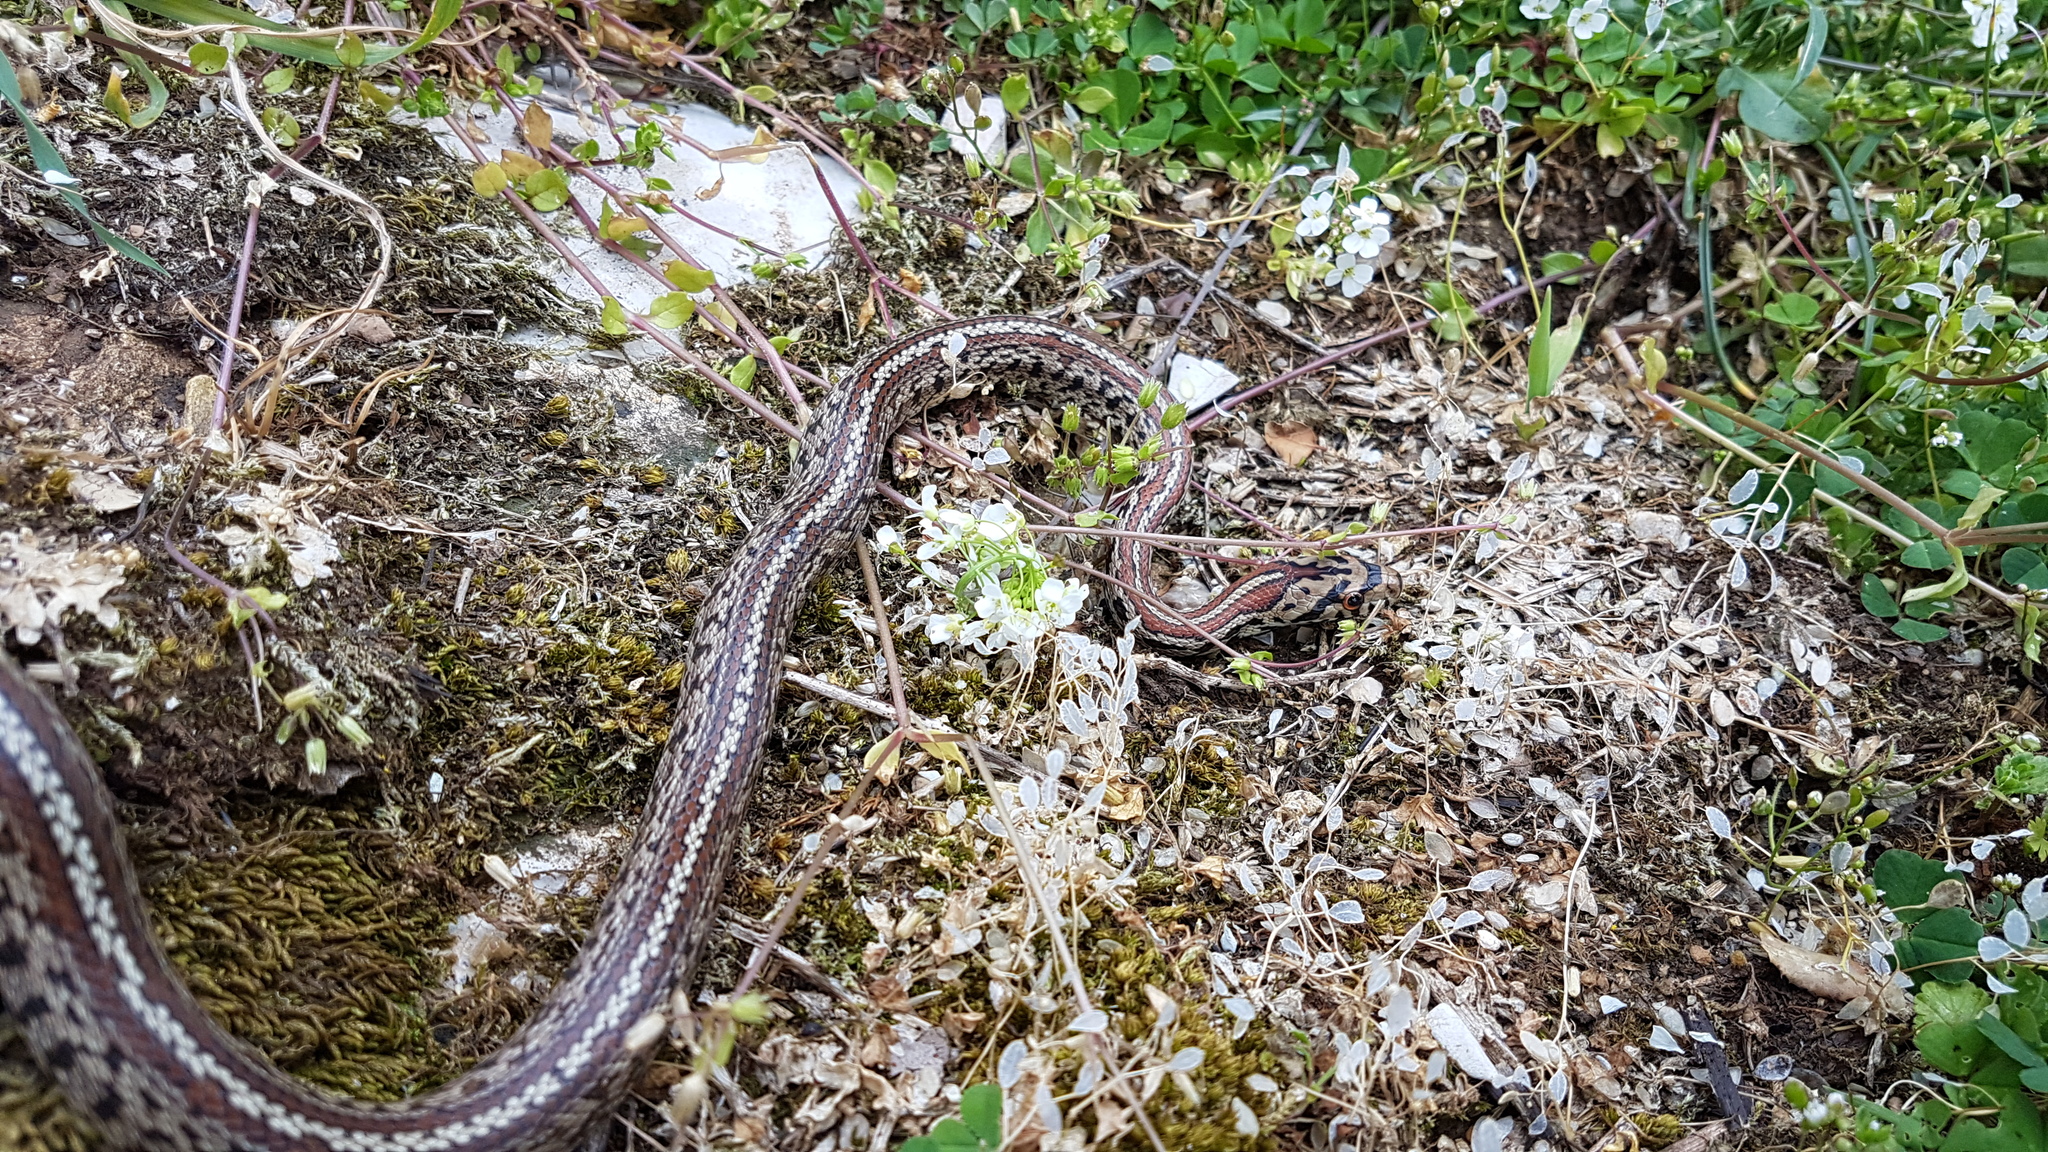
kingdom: Animalia
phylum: Chordata
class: Squamata
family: Colubridae
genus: Zamenis
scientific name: Zamenis situla
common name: European ratsnake
